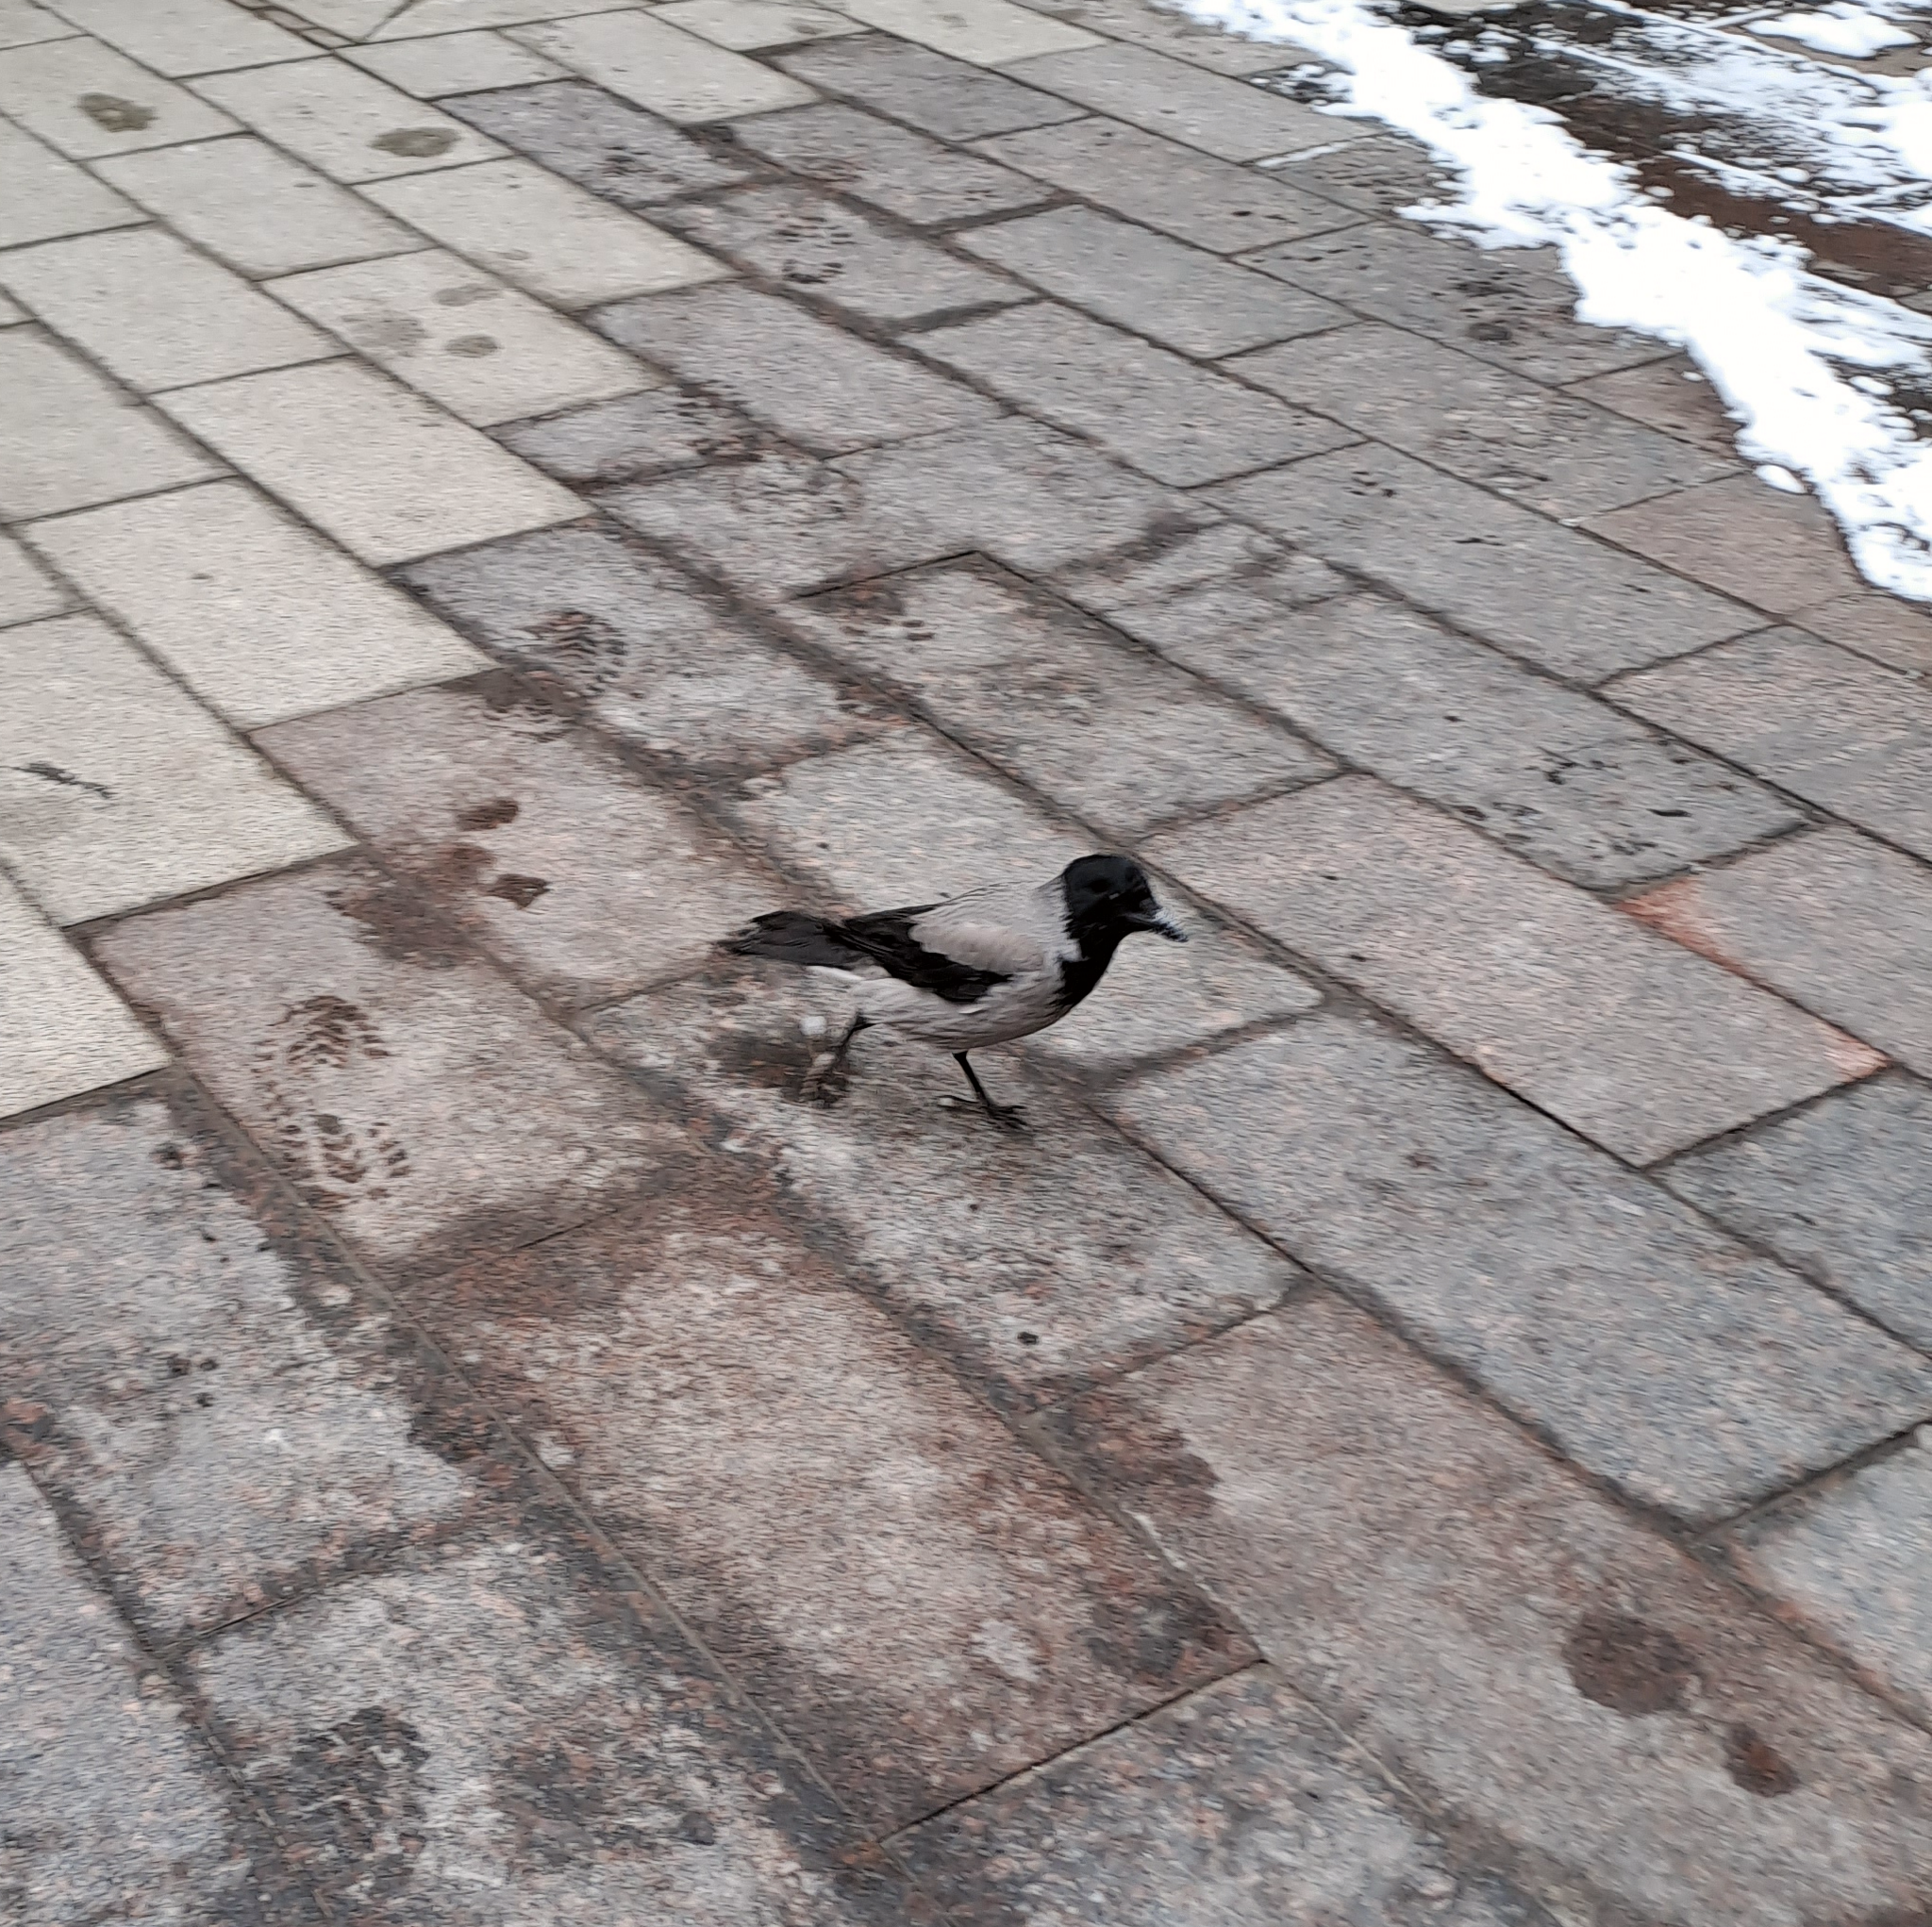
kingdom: Animalia
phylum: Chordata
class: Aves
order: Passeriformes
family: Corvidae
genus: Corvus
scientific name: Corvus cornix
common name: Hooded crow
